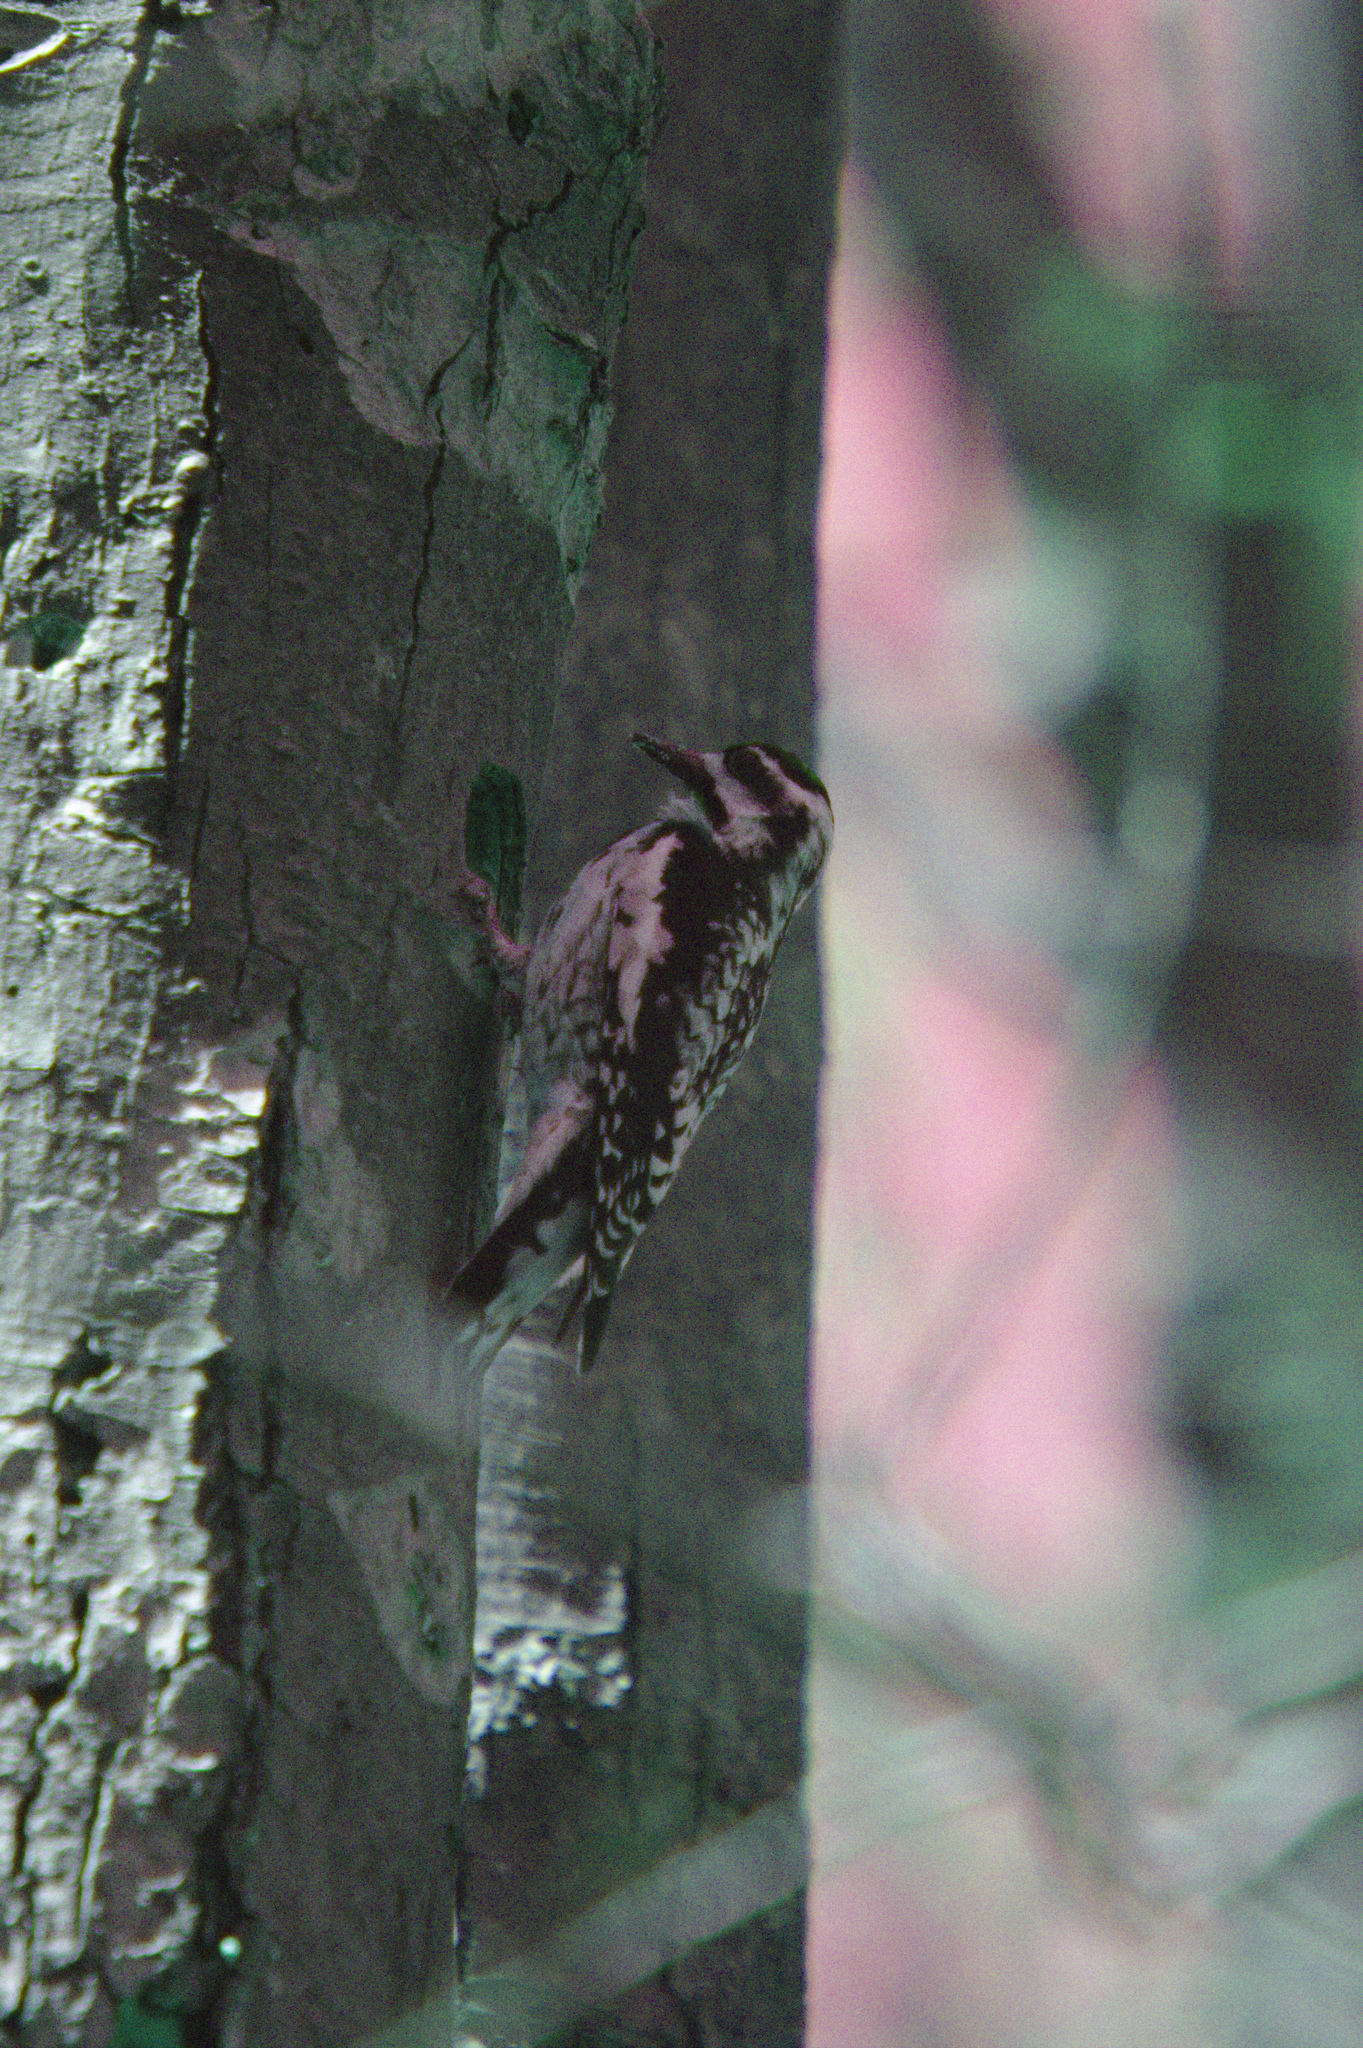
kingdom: Animalia
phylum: Chordata
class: Aves
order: Piciformes
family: Picidae
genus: Sphyrapicus
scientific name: Sphyrapicus varius
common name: Yellow-bellied sapsucker
